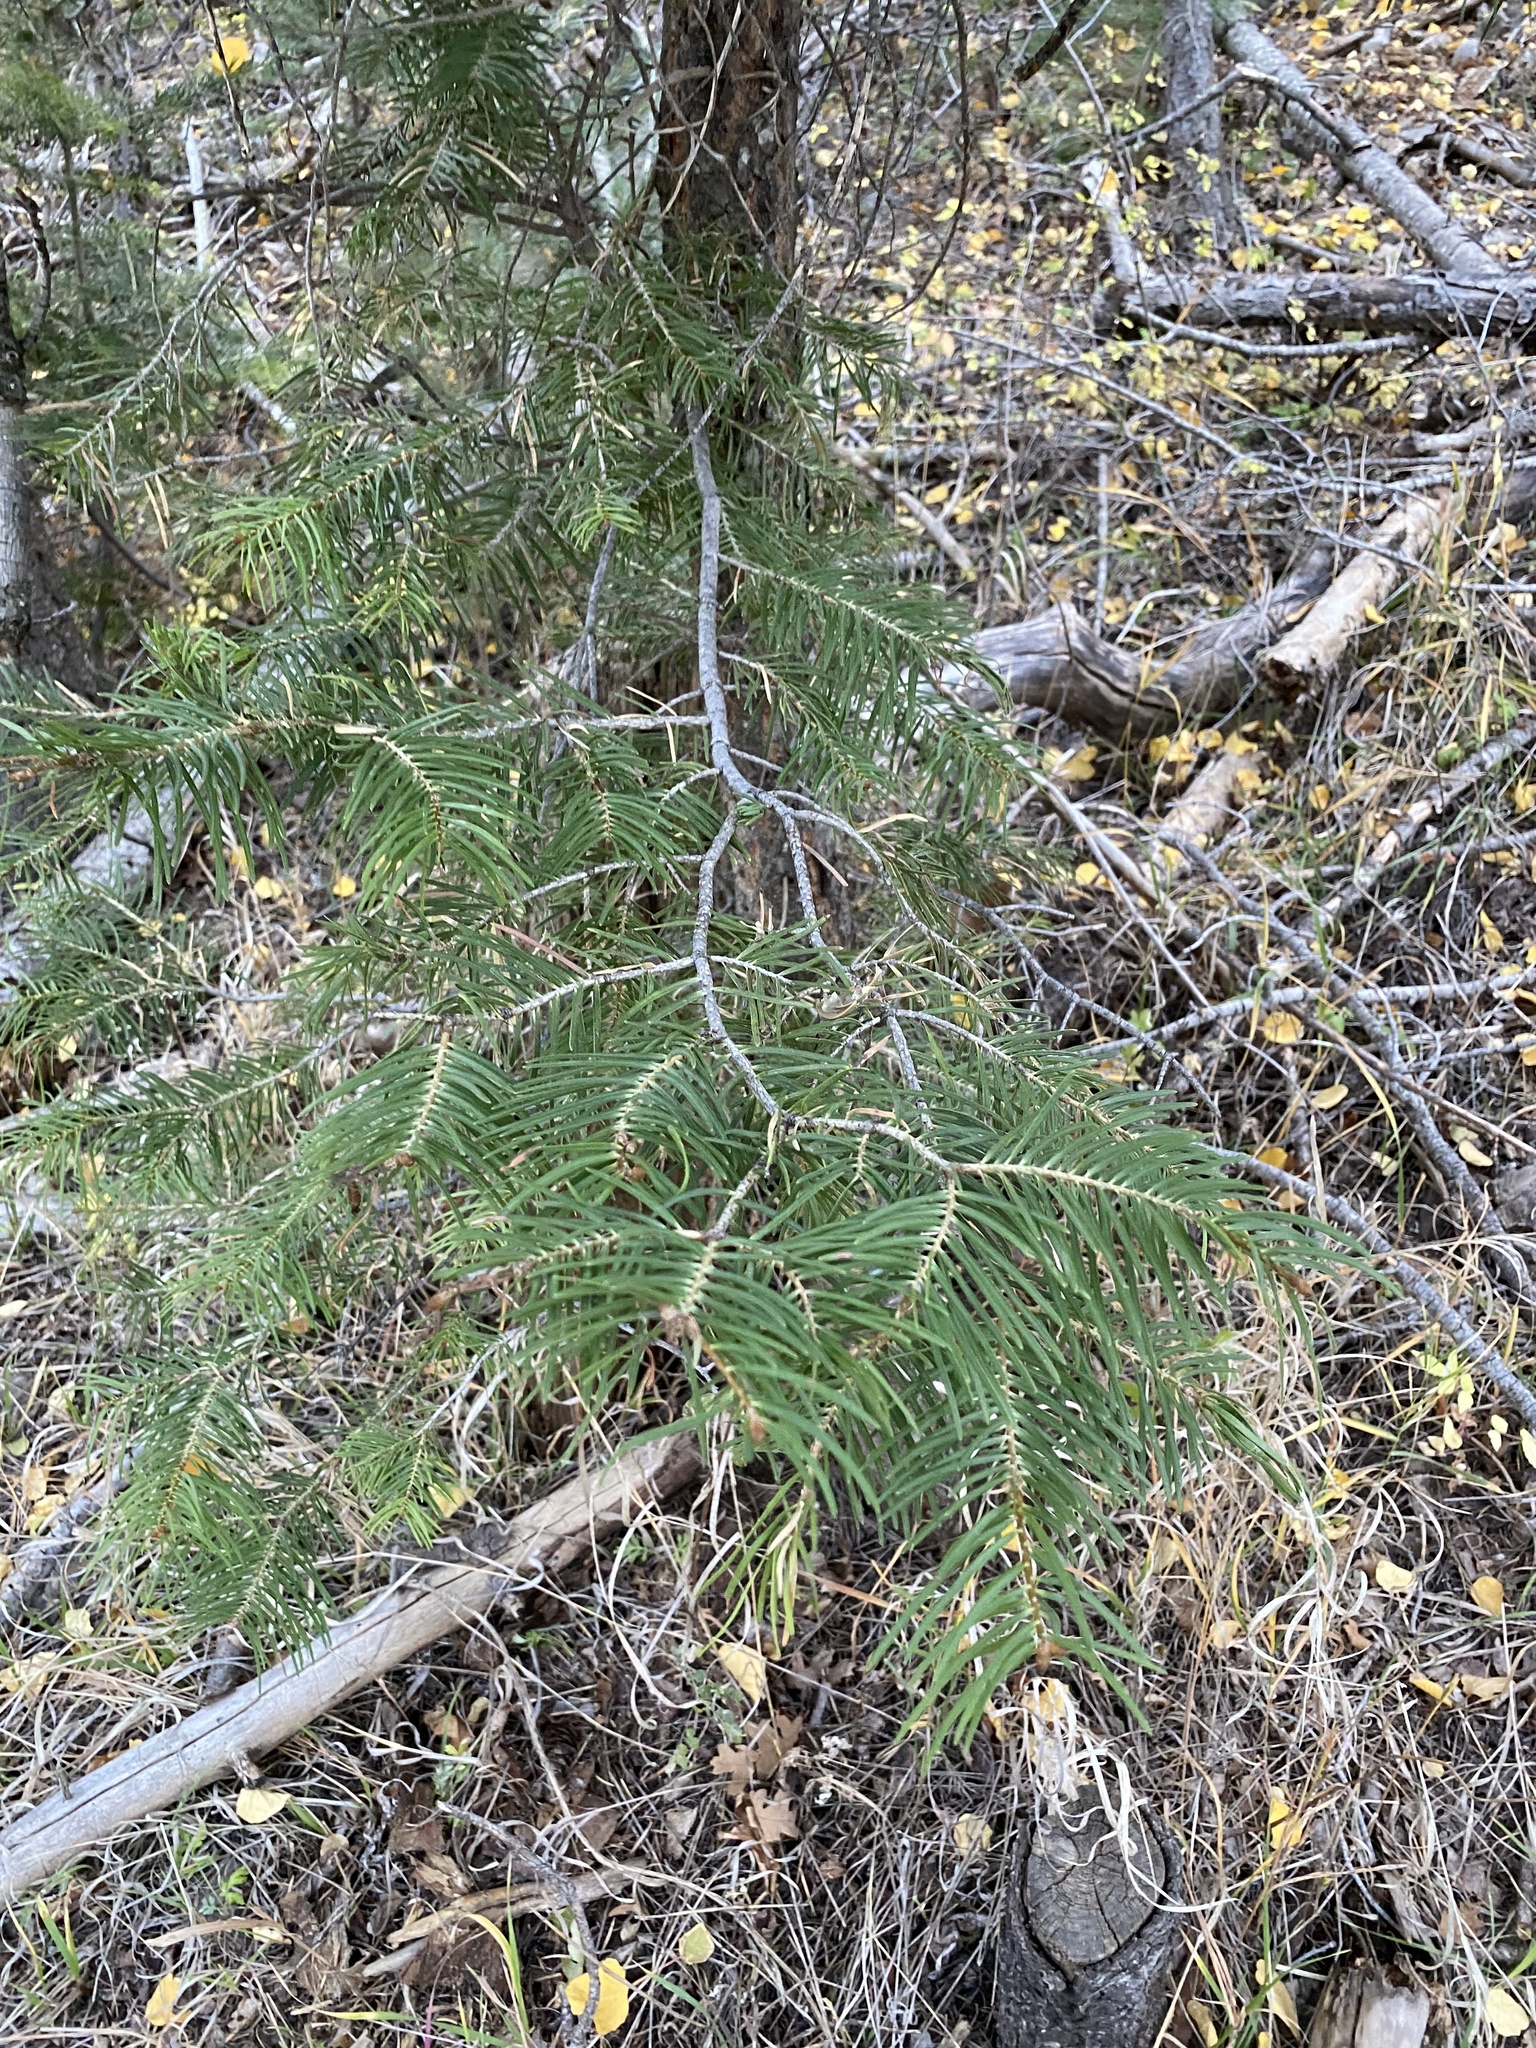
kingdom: Plantae
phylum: Tracheophyta
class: Pinopsida
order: Pinales
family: Pinaceae
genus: Abies
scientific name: Abies concolor
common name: Colorado fir
